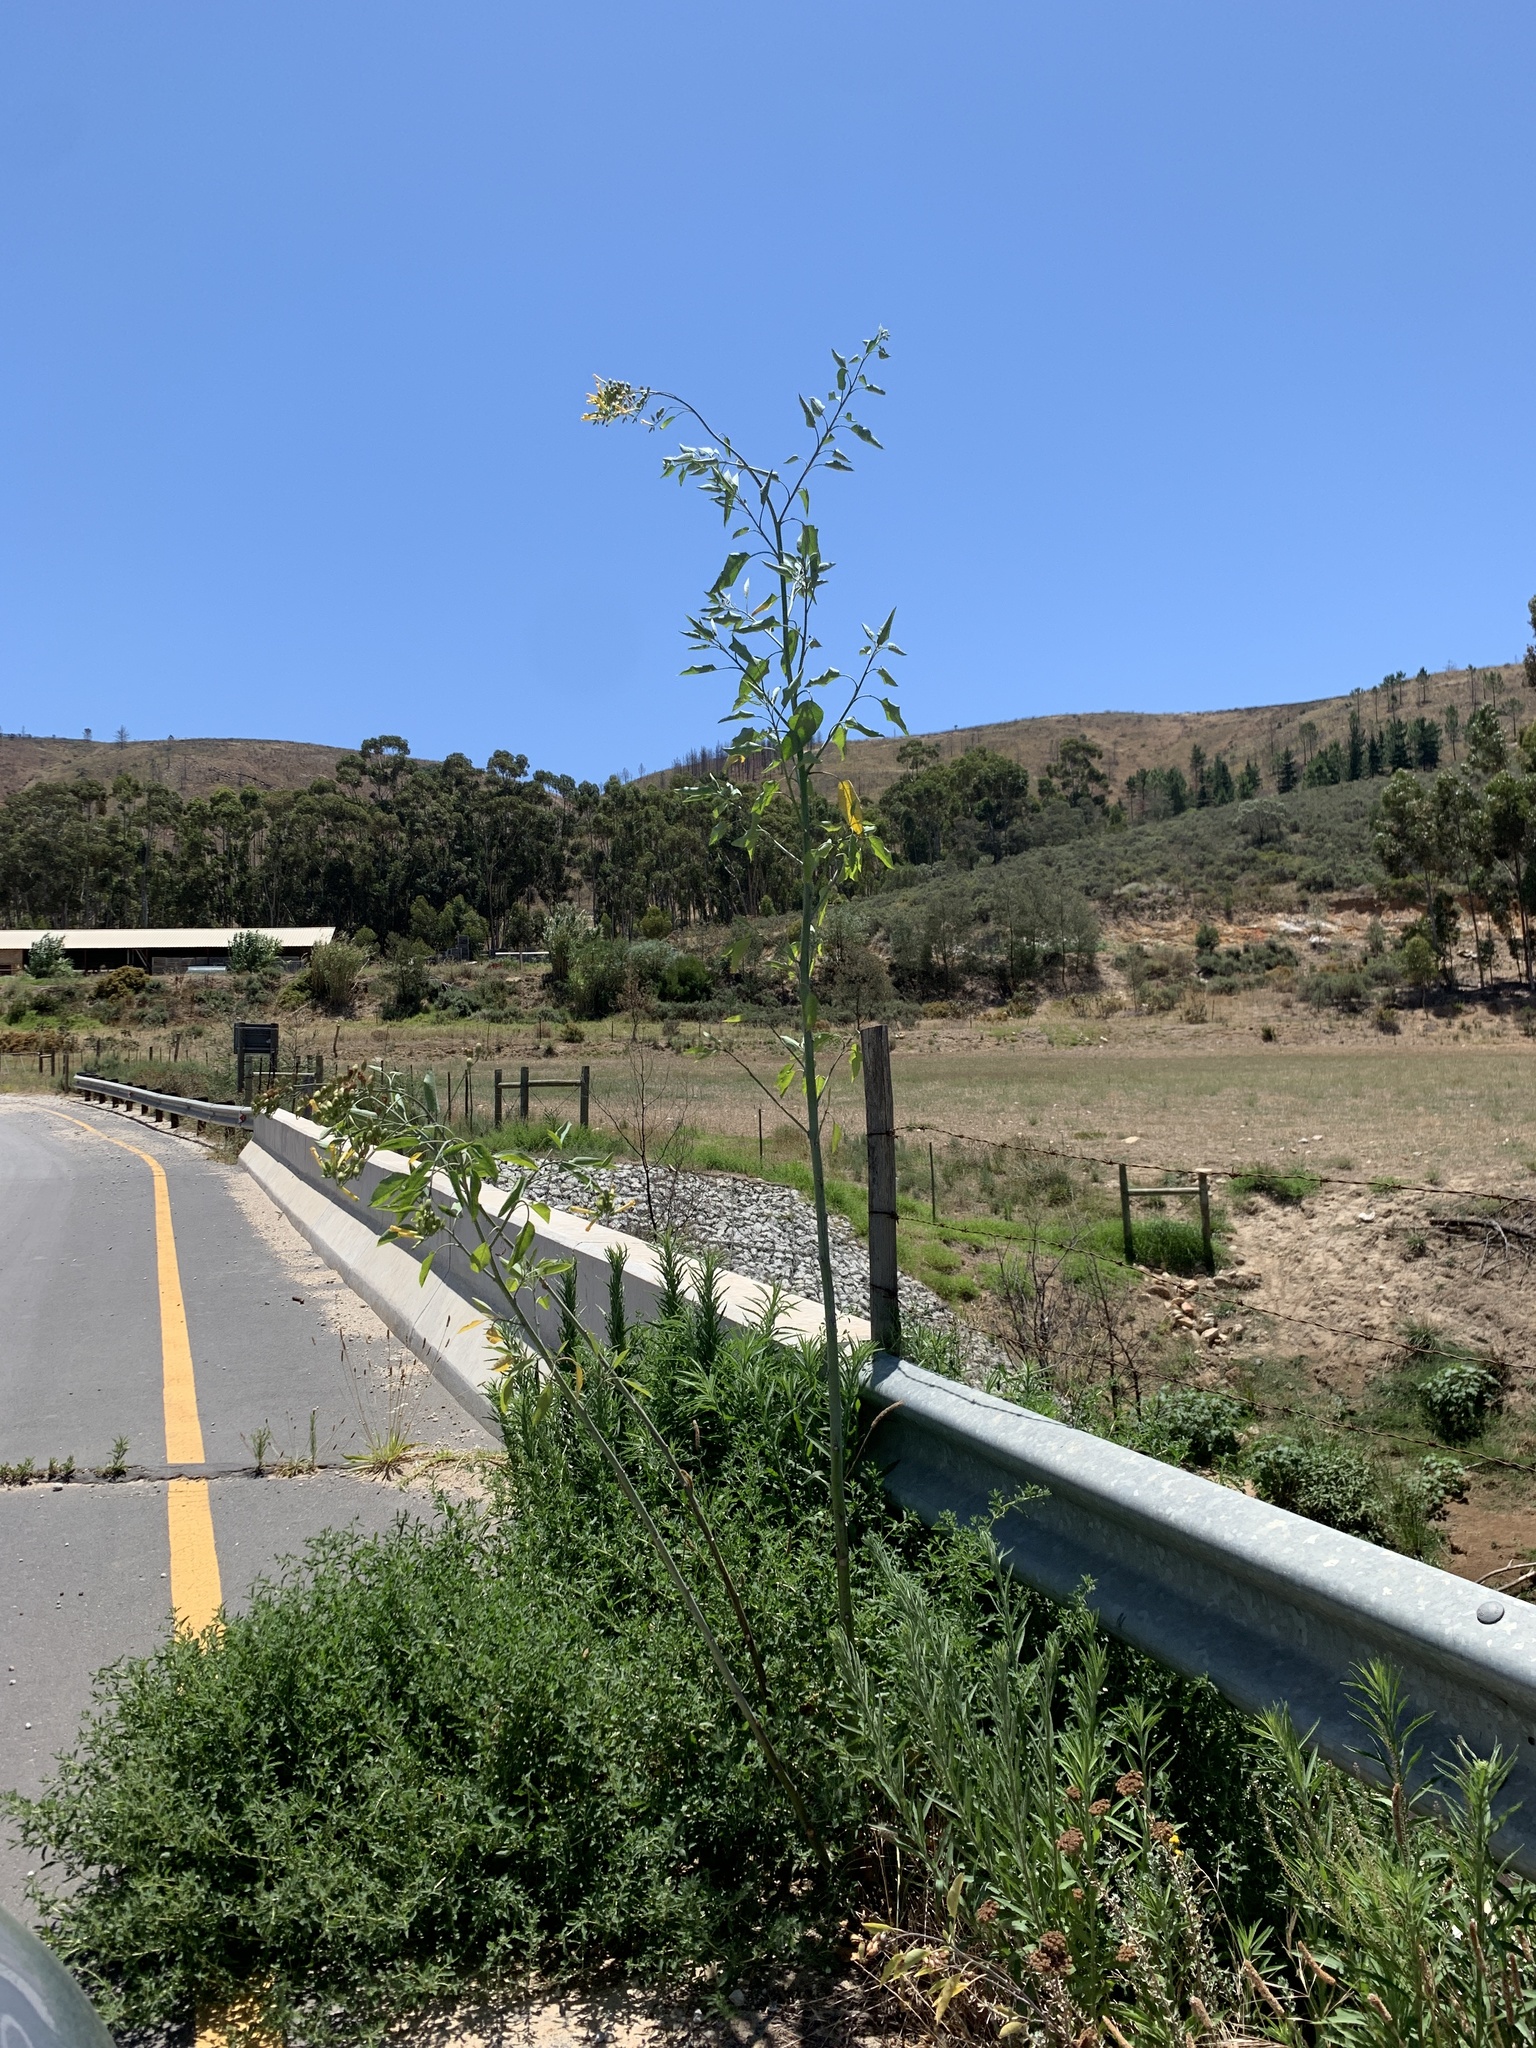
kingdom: Plantae
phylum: Tracheophyta
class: Magnoliopsida
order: Solanales
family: Solanaceae
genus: Nicotiana
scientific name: Nicotiana glauca
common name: Tree tobacco
